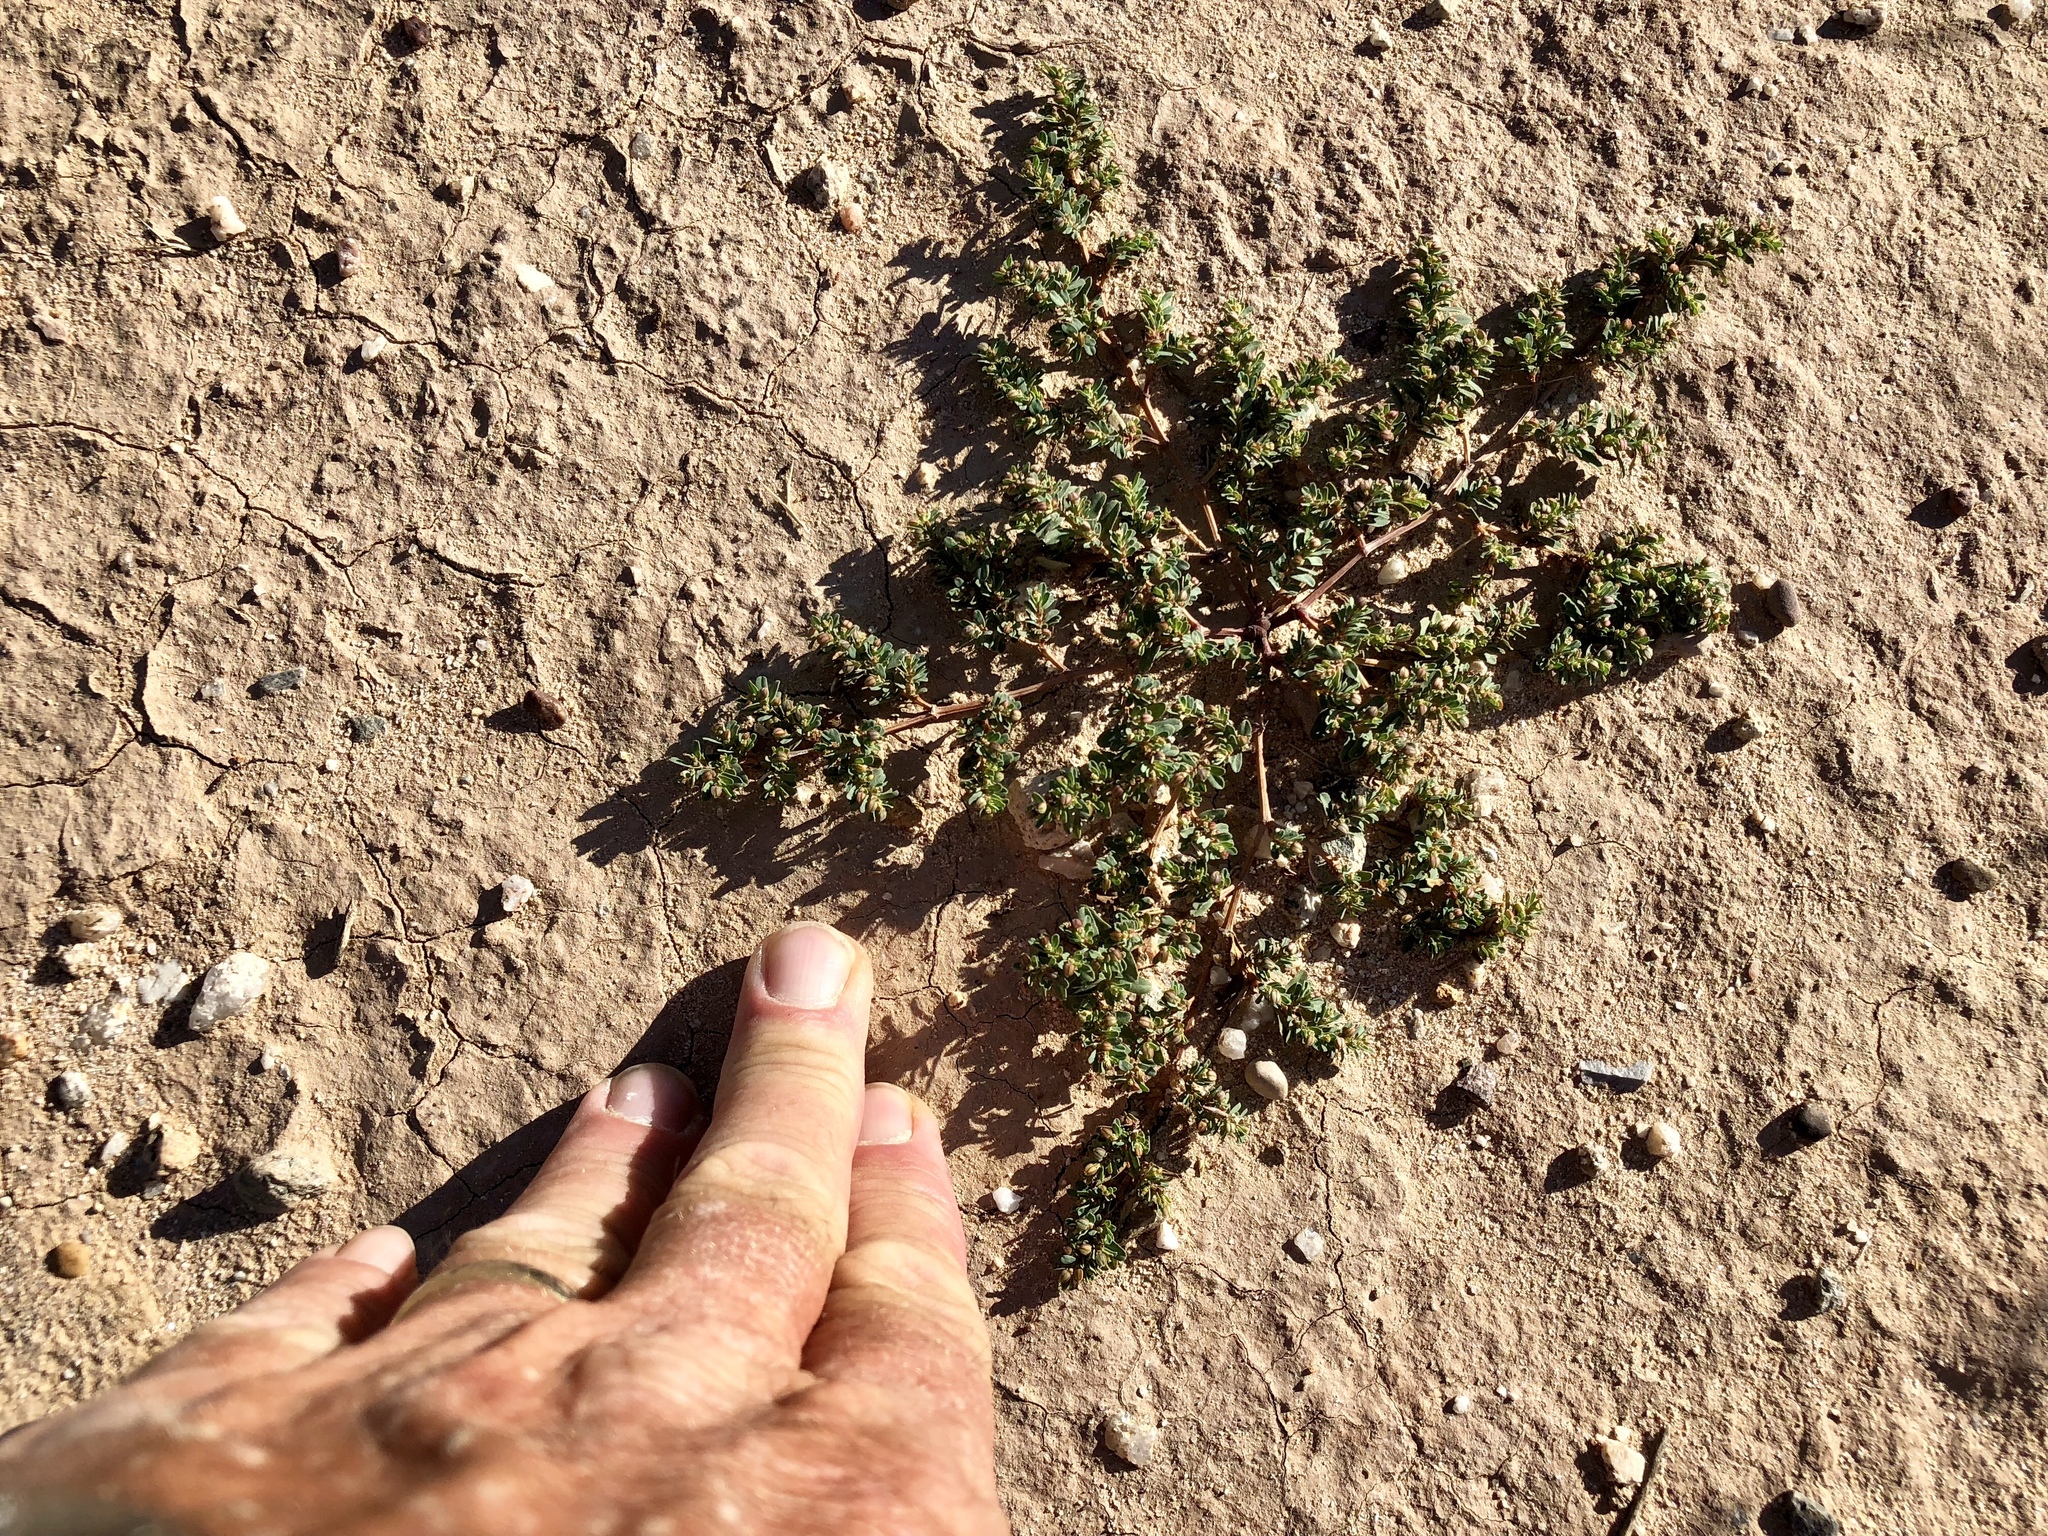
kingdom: Plantae
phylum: Tracheophyta
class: Magnoliopsida
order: Malpighiales
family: Euphorbiaceae
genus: Euphorbia
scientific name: Euphorbia serpillifolia
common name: Thyme-leaf spurge
